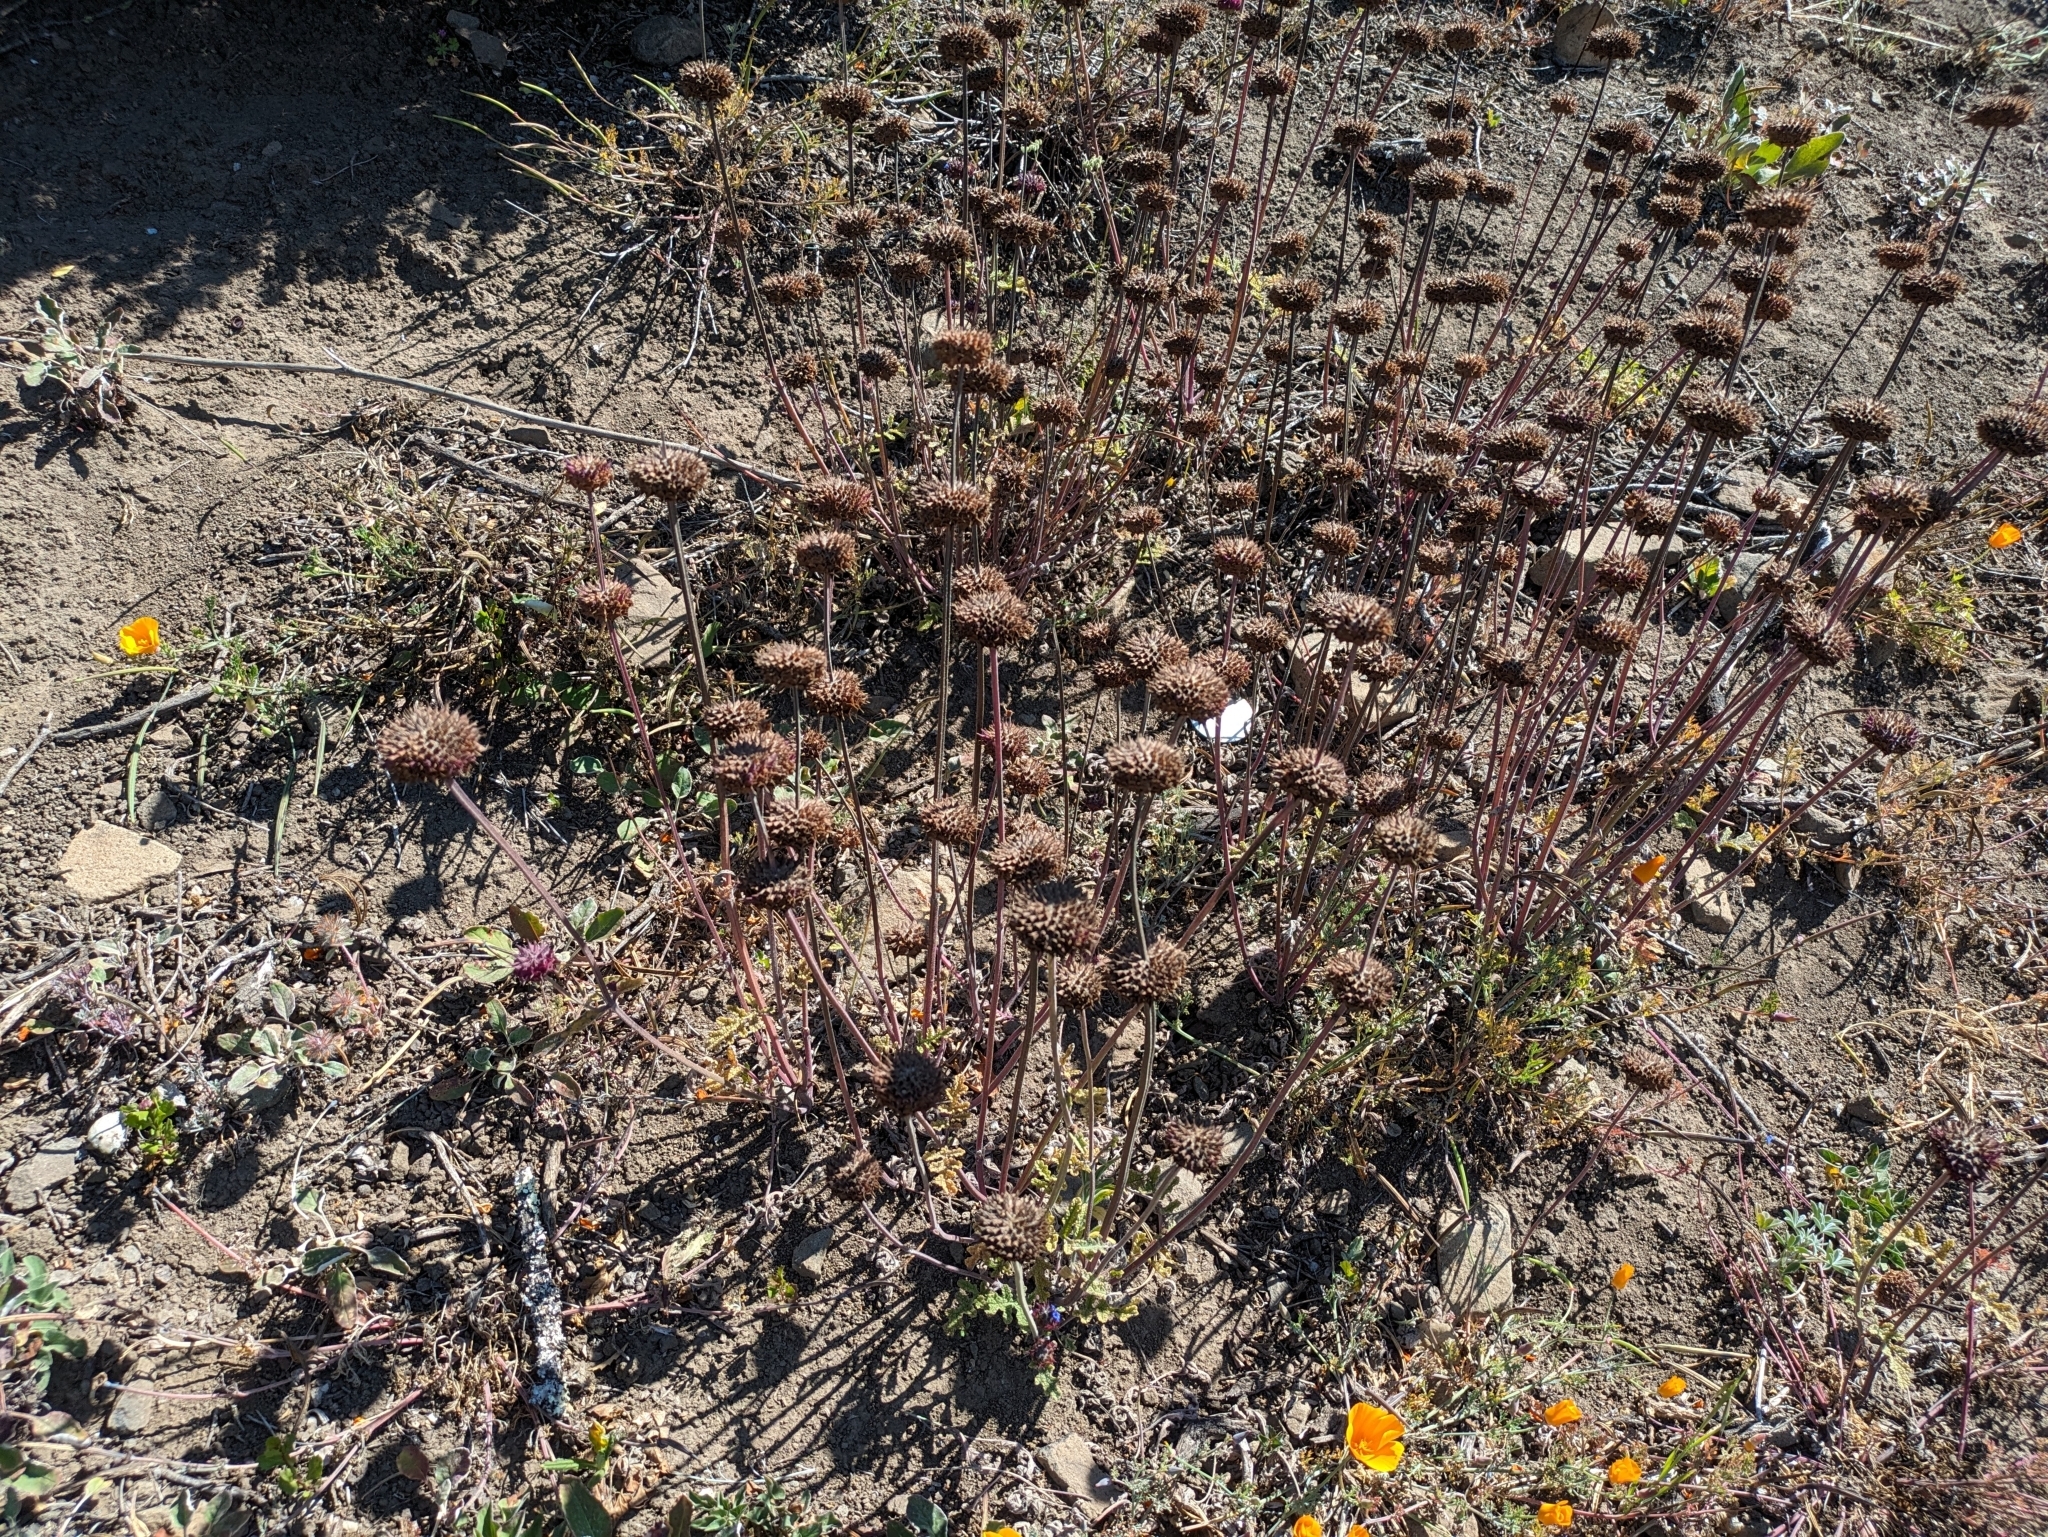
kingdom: Plantae
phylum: Tracheophyta
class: Magnoliopsida
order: Lamiales
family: Lamiaceae
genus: Salvia
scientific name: Salvia columbariae
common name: Chia
